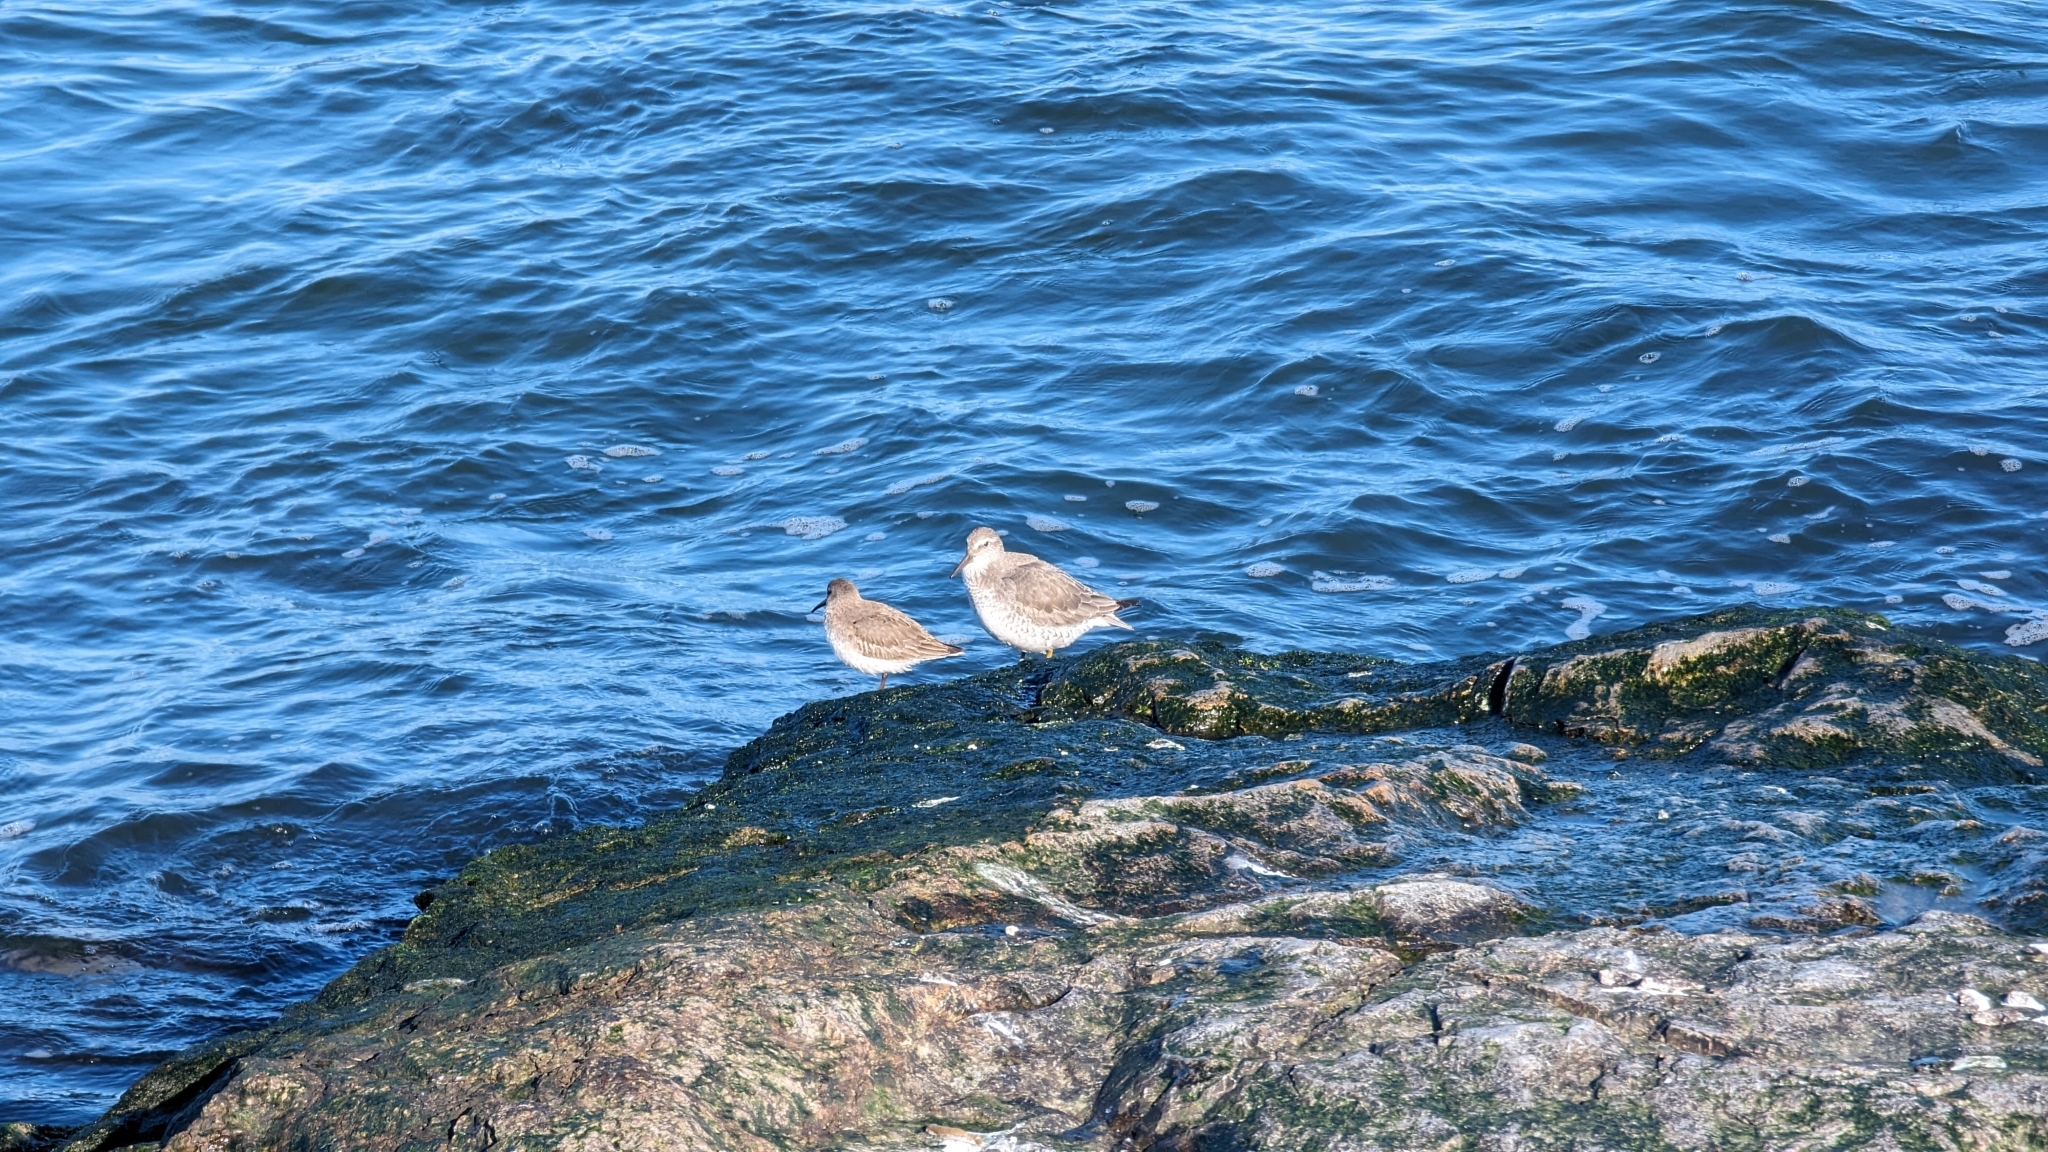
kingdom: Animalia
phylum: Chordata
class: Aves
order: Charadriiformes
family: Scolopacidae
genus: Calidris
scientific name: Calidris canutus
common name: Red knot
